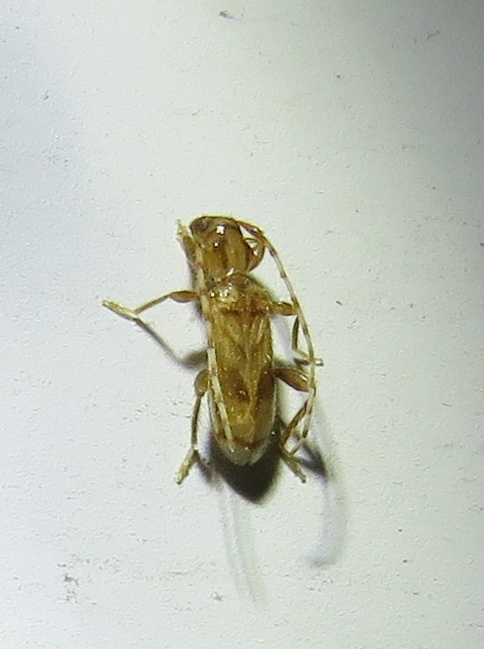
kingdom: Animalia
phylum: Arthropoda
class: Insecta
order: Coleoptera
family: Cerambycidae
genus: Obrium
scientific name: Obrium maculatum
